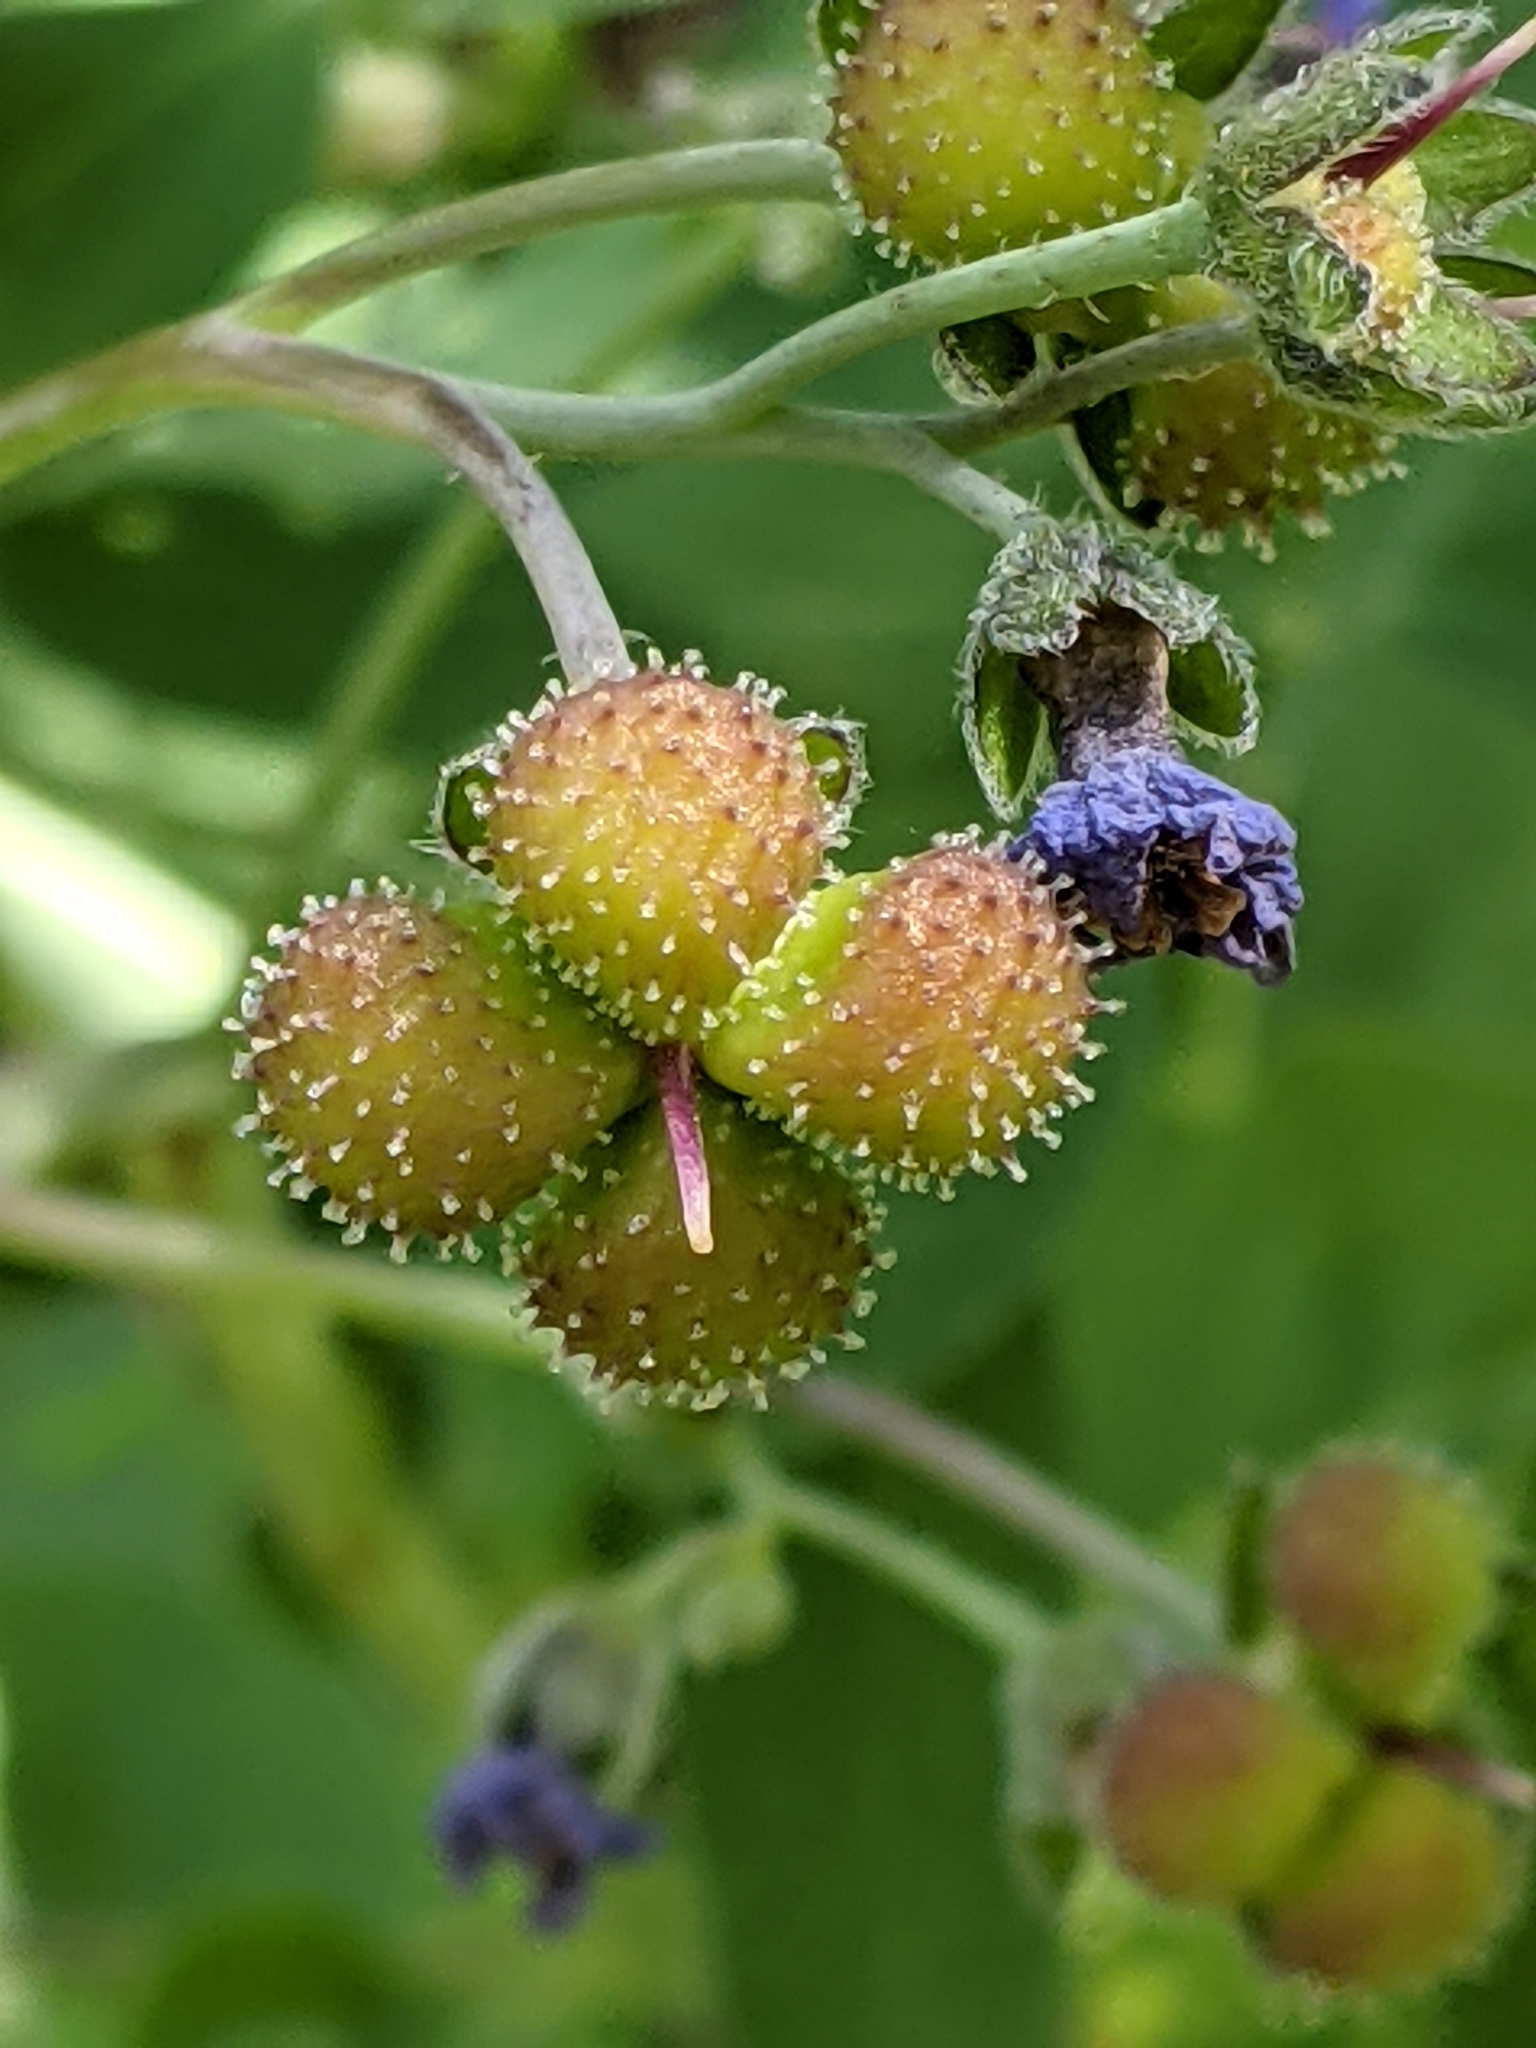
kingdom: Plantae
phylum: Tracheophyta
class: Magnoliopsida
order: Boraginales
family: Boraginaceae
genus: Adelinia
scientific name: Adelinia grande
